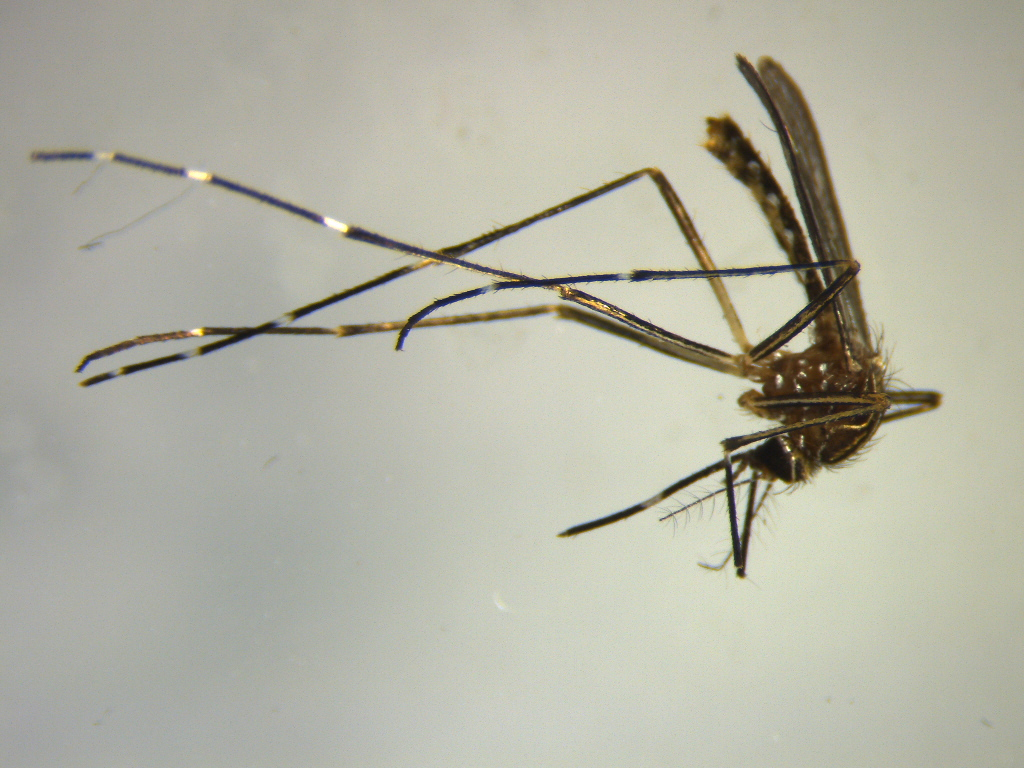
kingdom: Animalia
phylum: Arthropoda
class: Insecta
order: Diptera
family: Culicidae
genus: Aedes
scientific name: Aedes notoscriptus
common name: Australian backyard mosquito
